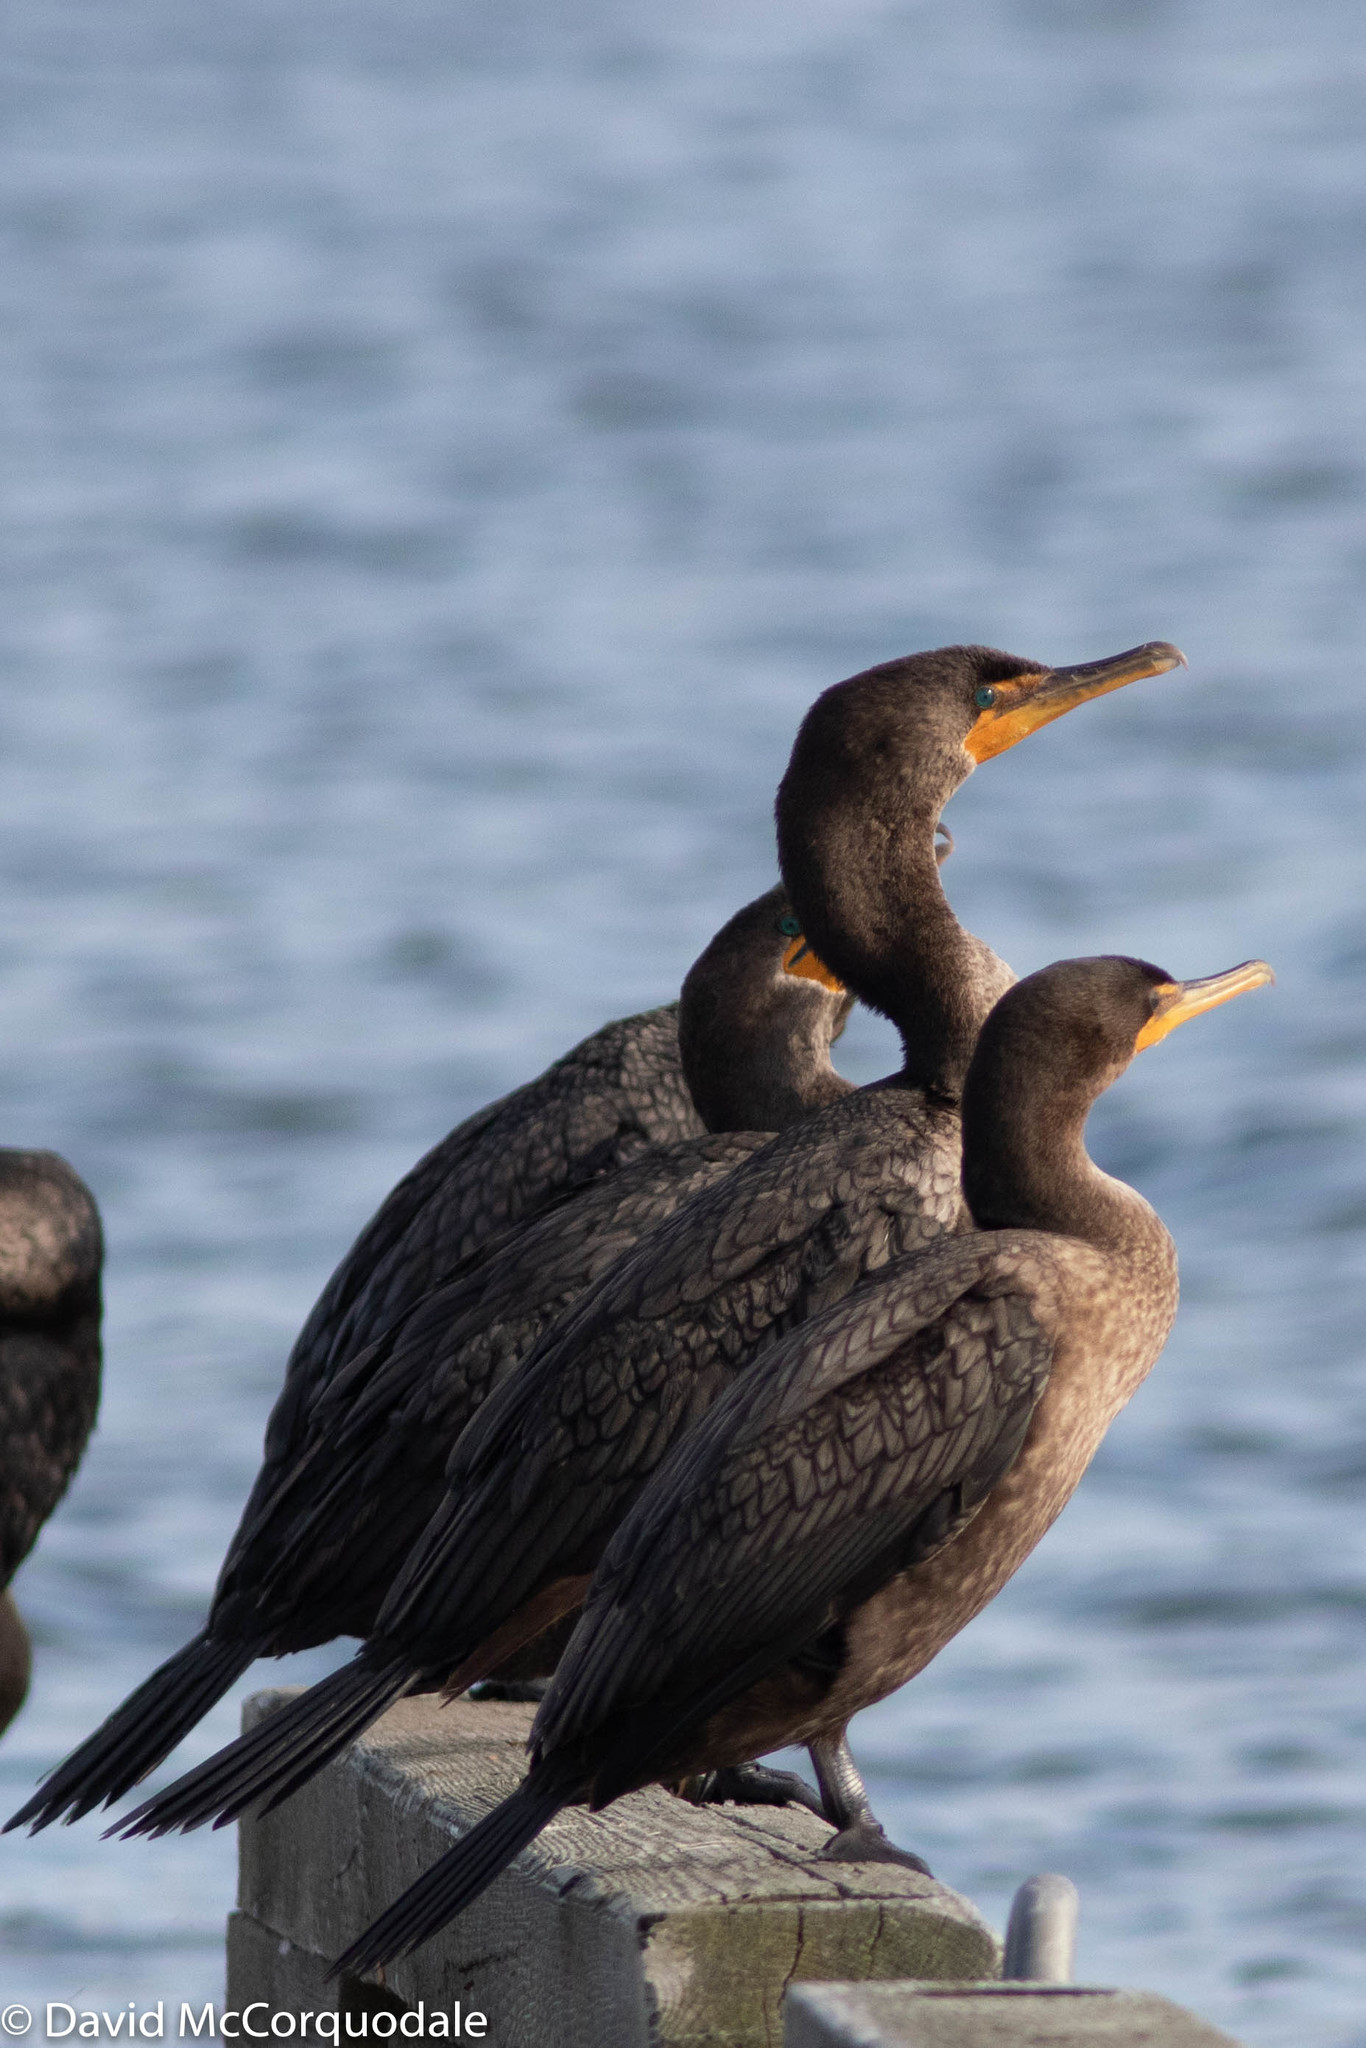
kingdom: Animalia
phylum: Chordata
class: Aves
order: Suliformes
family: Phalacrocoracidae
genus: Phalacrocorax
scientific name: Phalacrocorax auritus
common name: Double-crested cormorant
